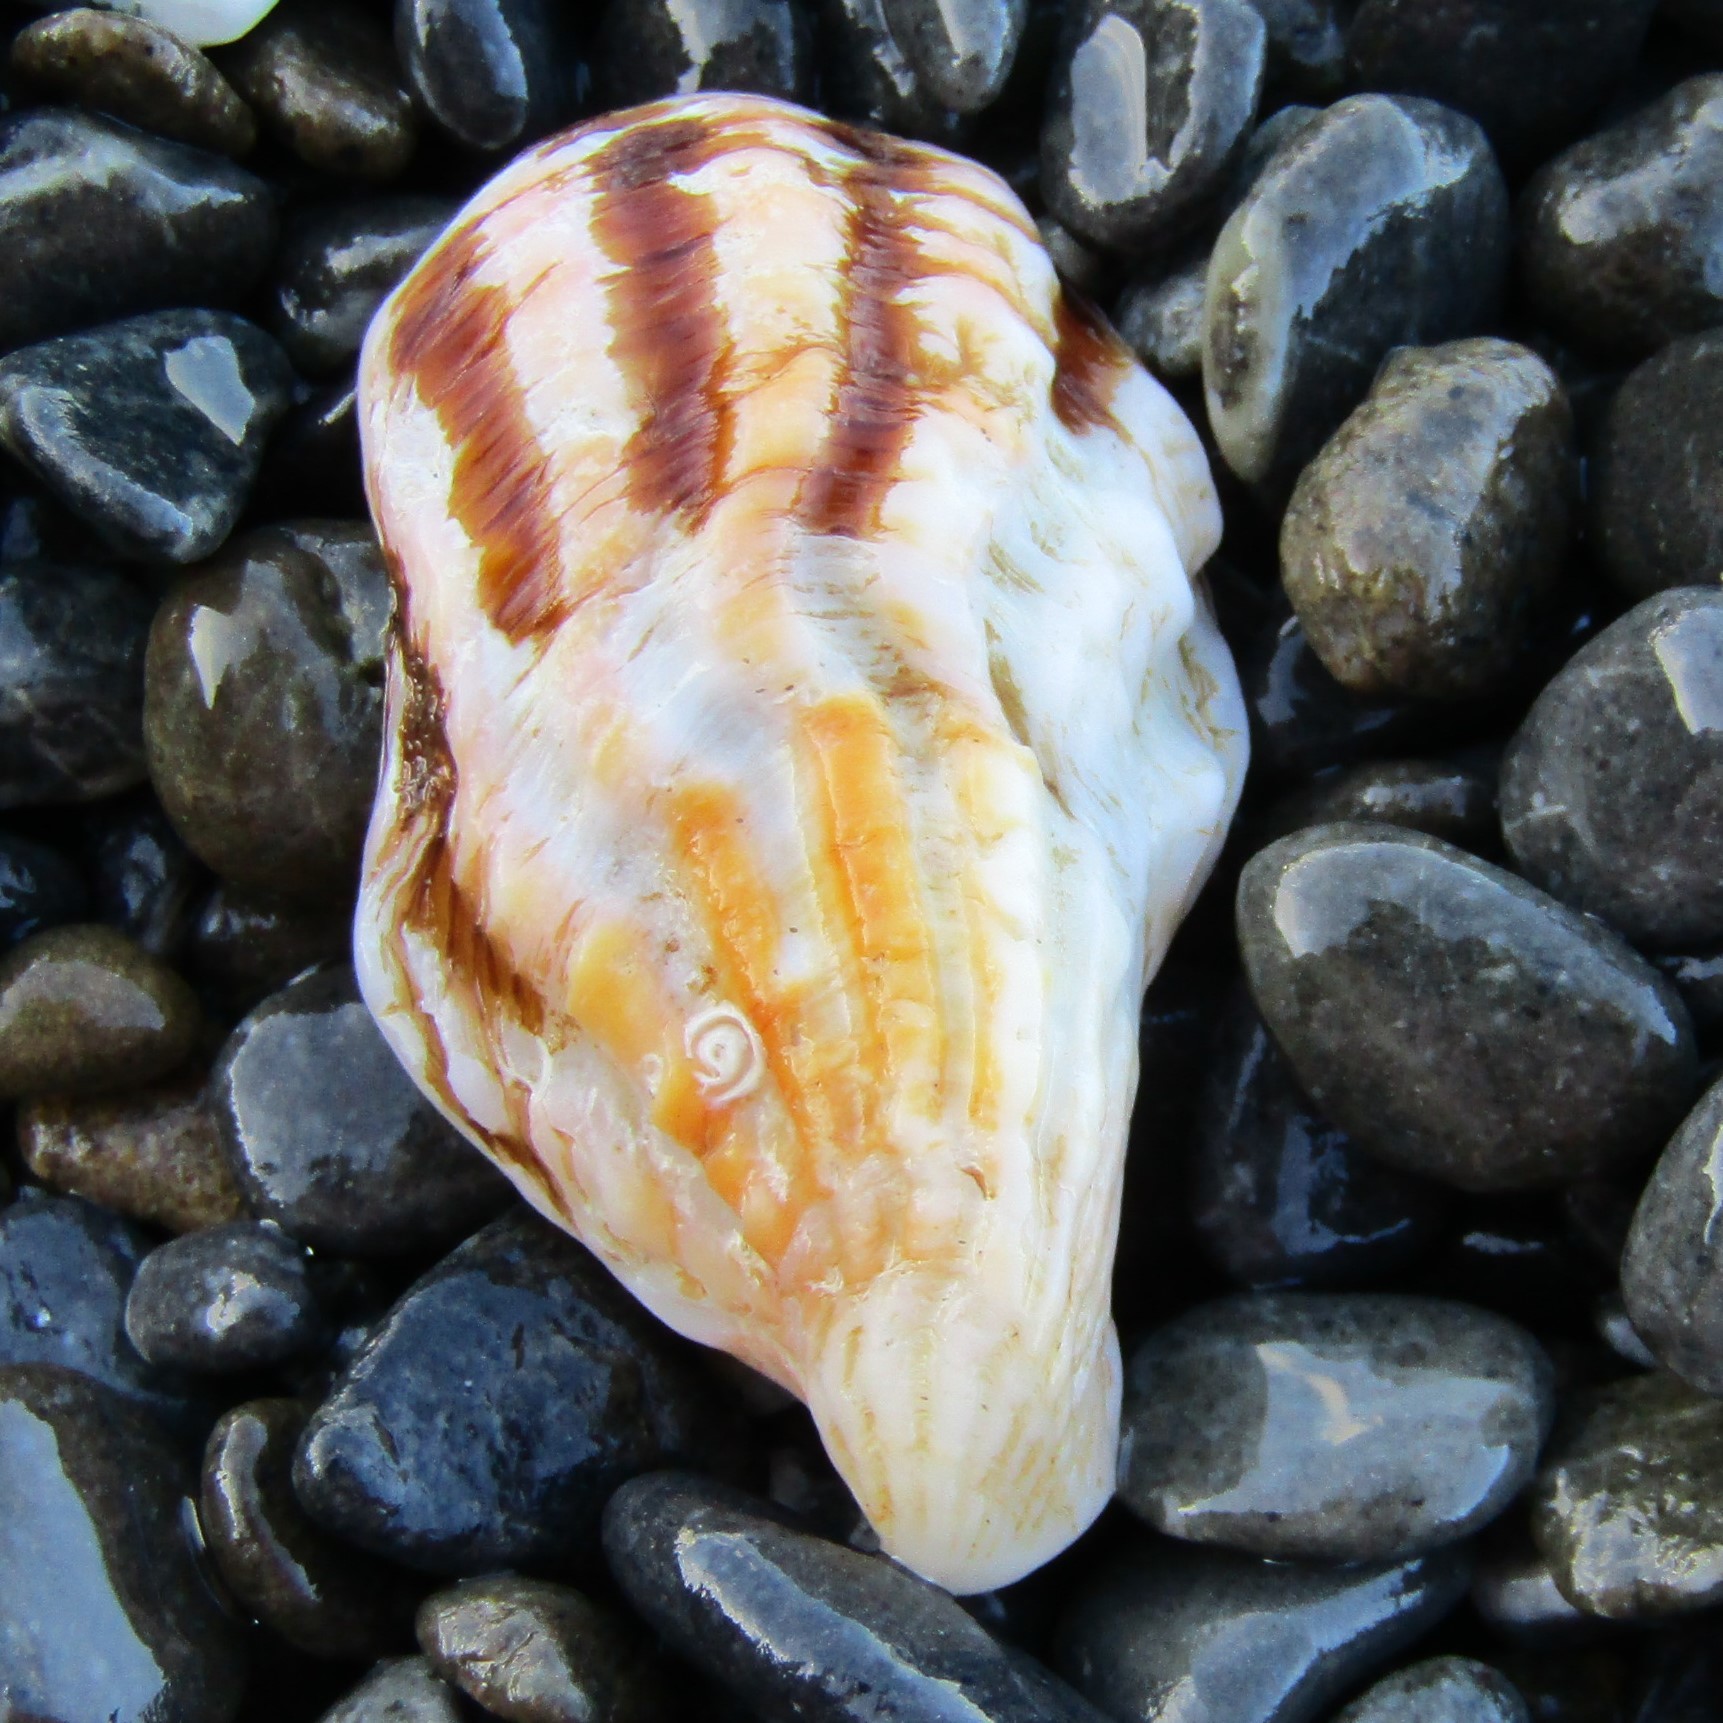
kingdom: Animalia
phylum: Mollusca
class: Bivalvia
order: Carditida
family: Carditidae
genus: Cardita
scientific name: Cardita distorta
